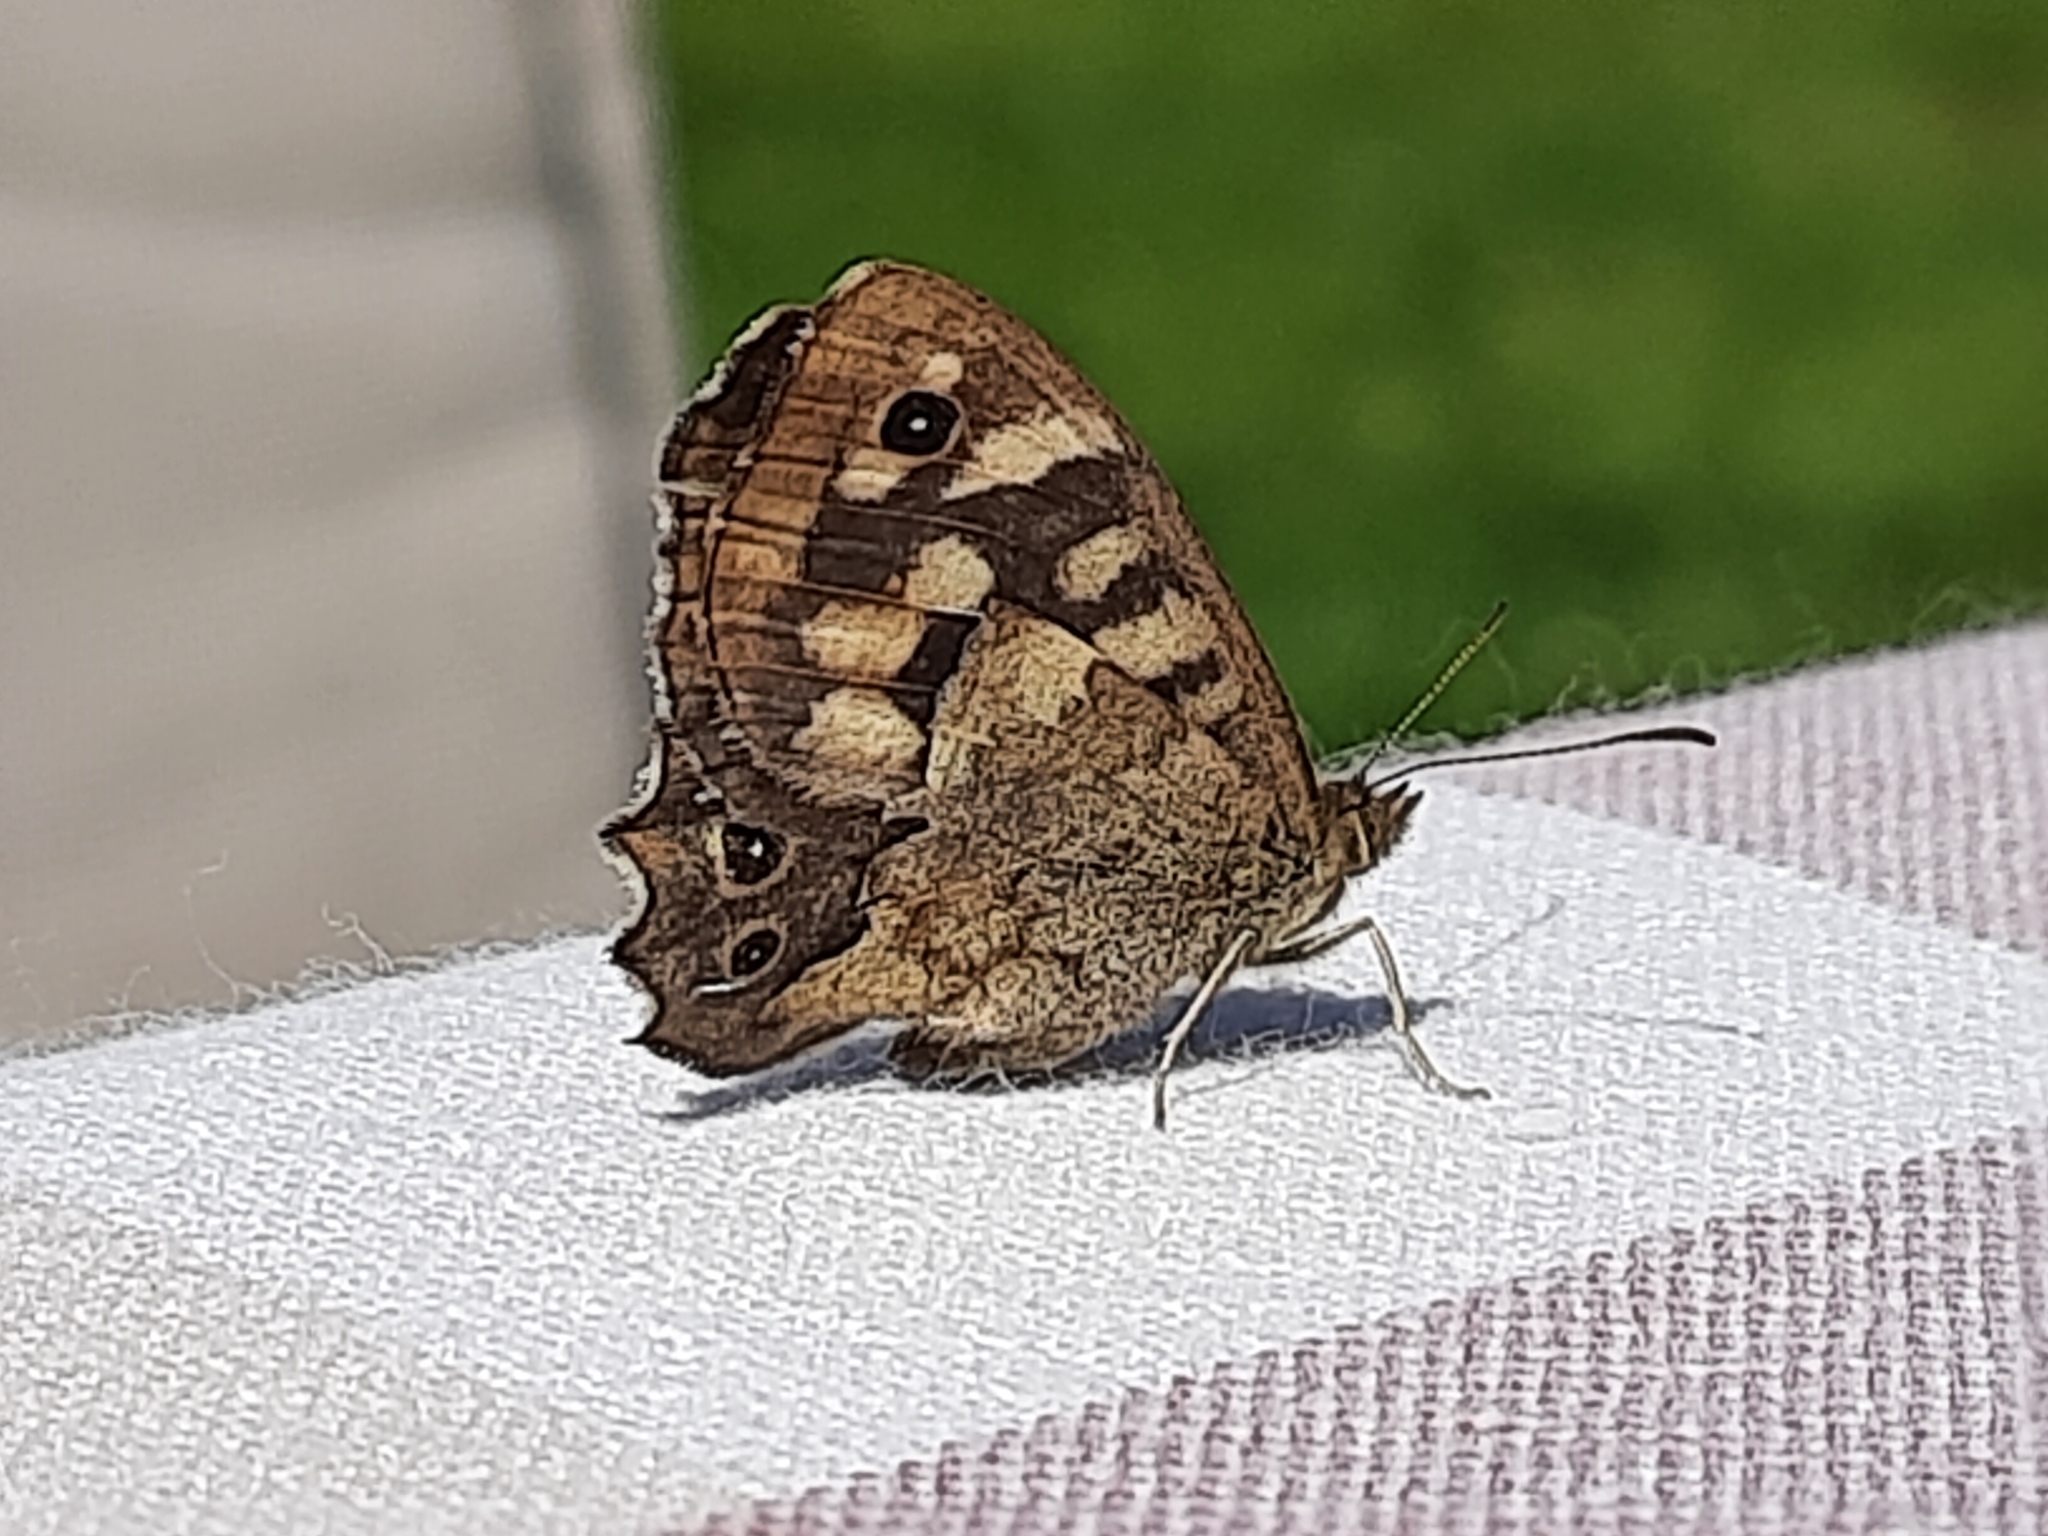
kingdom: Animalia
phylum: Arthropoda
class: Insecta
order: Lepidoptera
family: Nymphalidae
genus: Pararge
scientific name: Pararge aegeria
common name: Speckled wood
